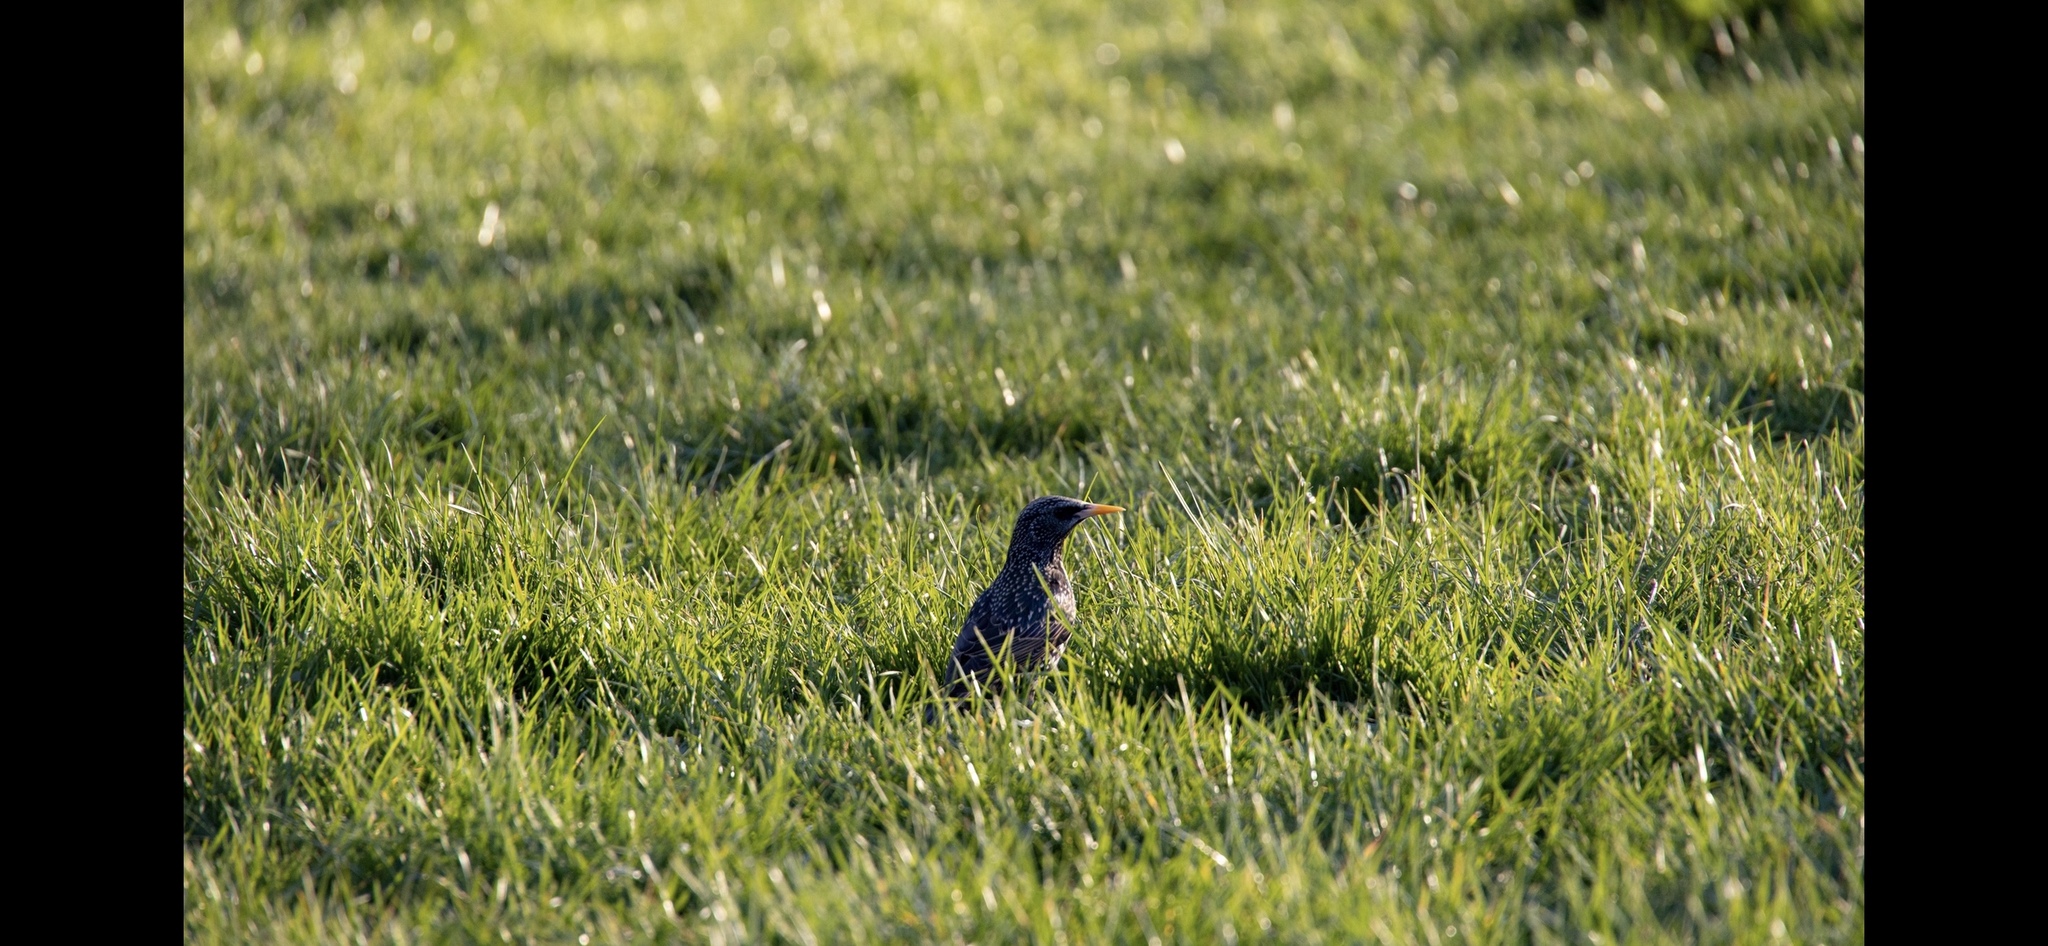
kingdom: Animalia
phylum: Chordata
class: Aves
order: Passeriformes
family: Sturnidae
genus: Sturnus
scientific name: Sturnus vulgaris
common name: Common starling
